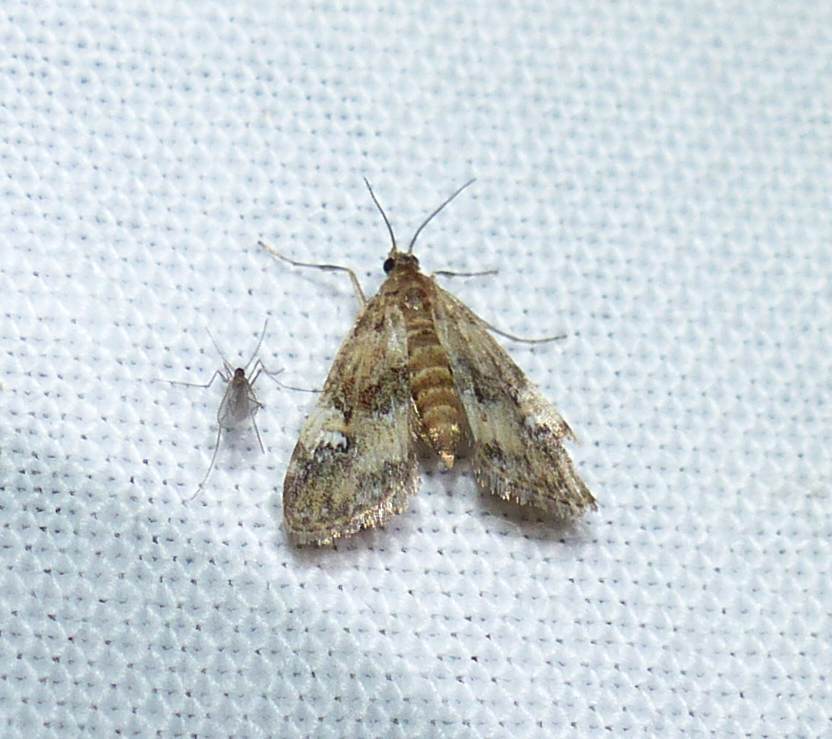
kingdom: Animalia
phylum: Arthropoda
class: Insecta
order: Lepidoptera
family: Crambidae
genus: Elophila
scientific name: Elophila obliteralis
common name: Waterlily leafcutter moth
